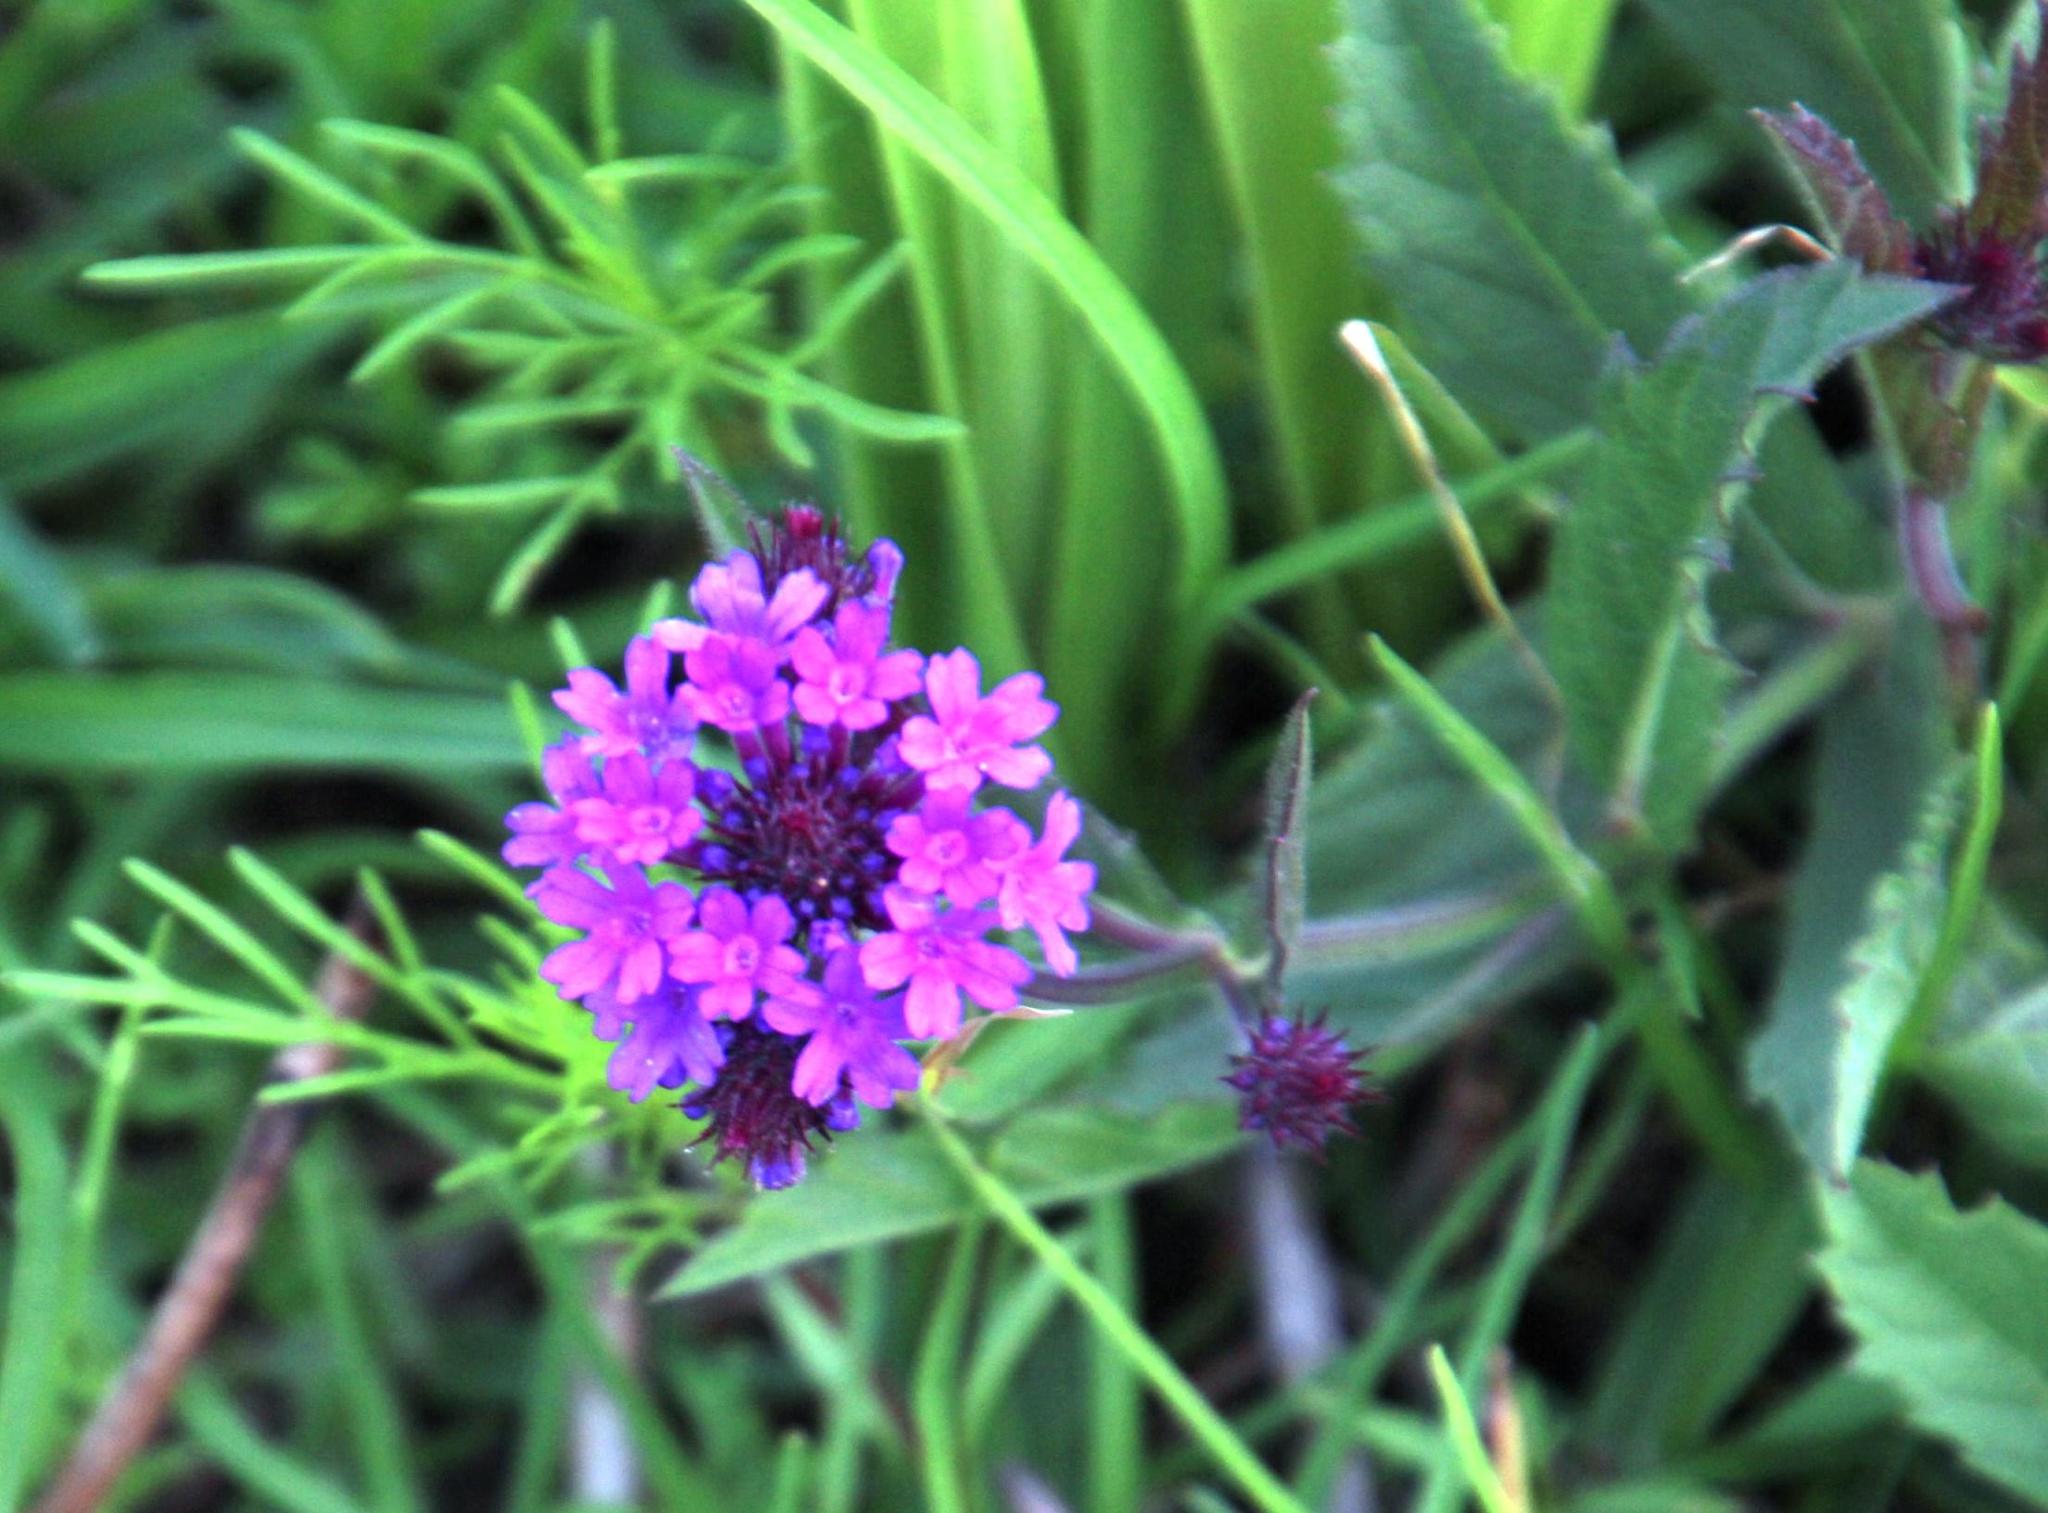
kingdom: Plantae
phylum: Tracheophyta
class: Magnoliopsida
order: Lamiales
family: Verbenaceae
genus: Verbena
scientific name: Verbena rigida
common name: Slender vervain
